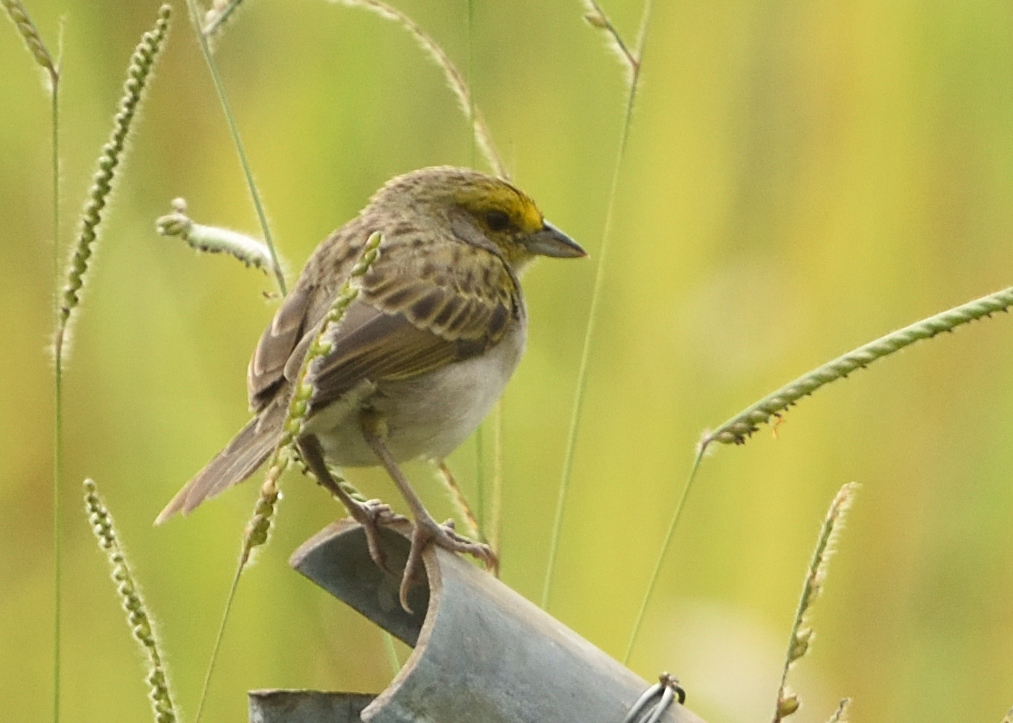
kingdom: Animalia
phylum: Chordata
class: Aves
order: Passeriformes
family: Passerellidae
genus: Ammodramus
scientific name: Ammodramus aurifrons
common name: Yellow-browed sparrow
